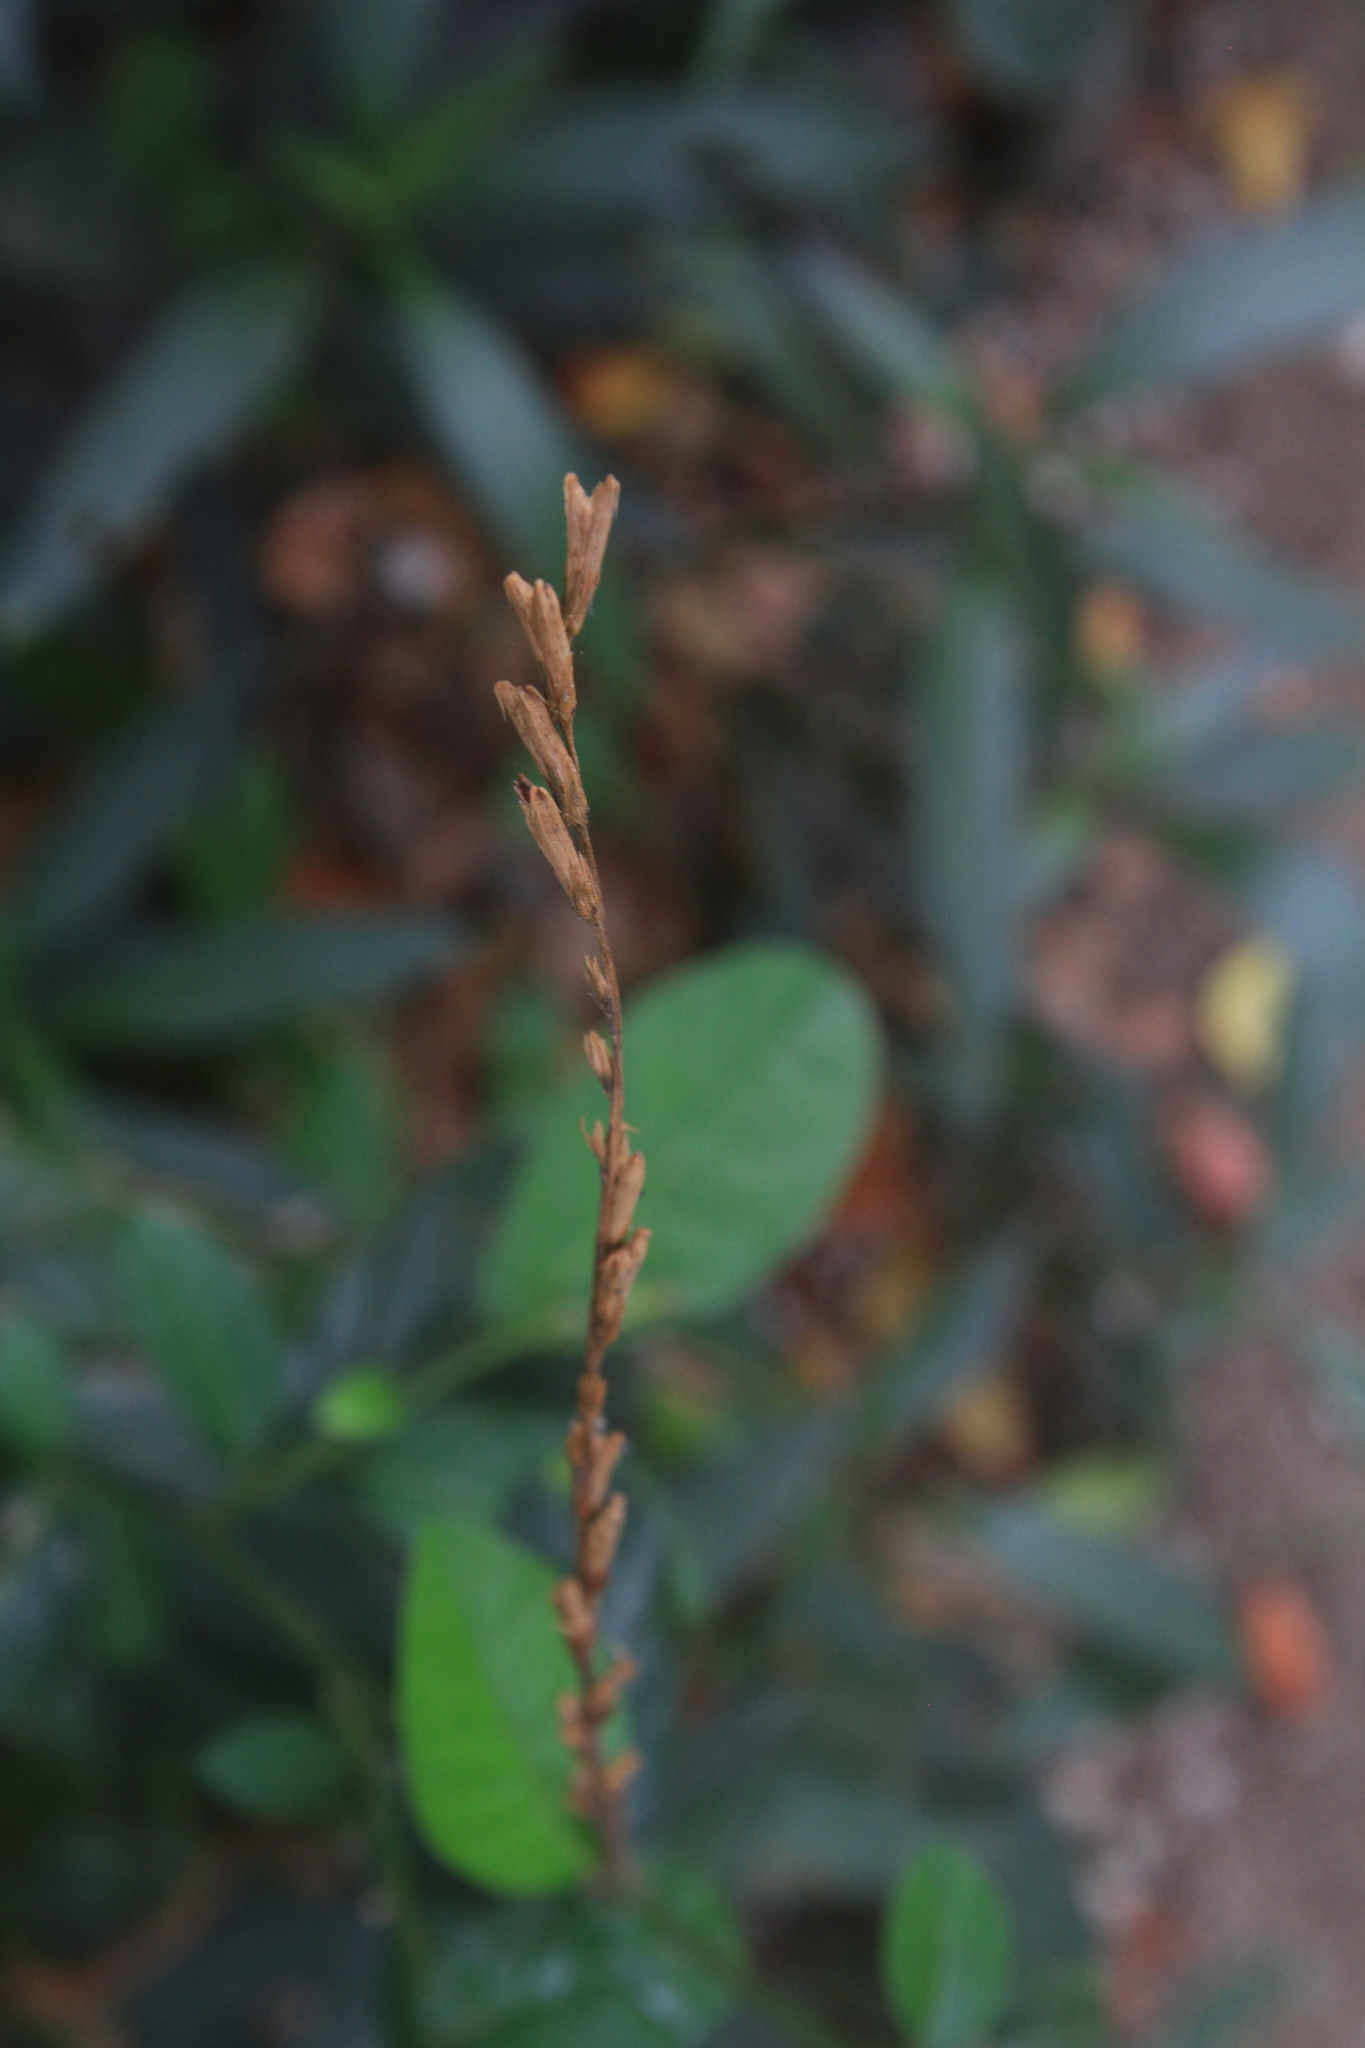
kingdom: Plantae
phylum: Tracheophyta
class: Magnoliopsida
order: Caryophyllales
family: Phytolaccaceae
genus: Petiveria
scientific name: Petiveria alliacea
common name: Garlicweed
